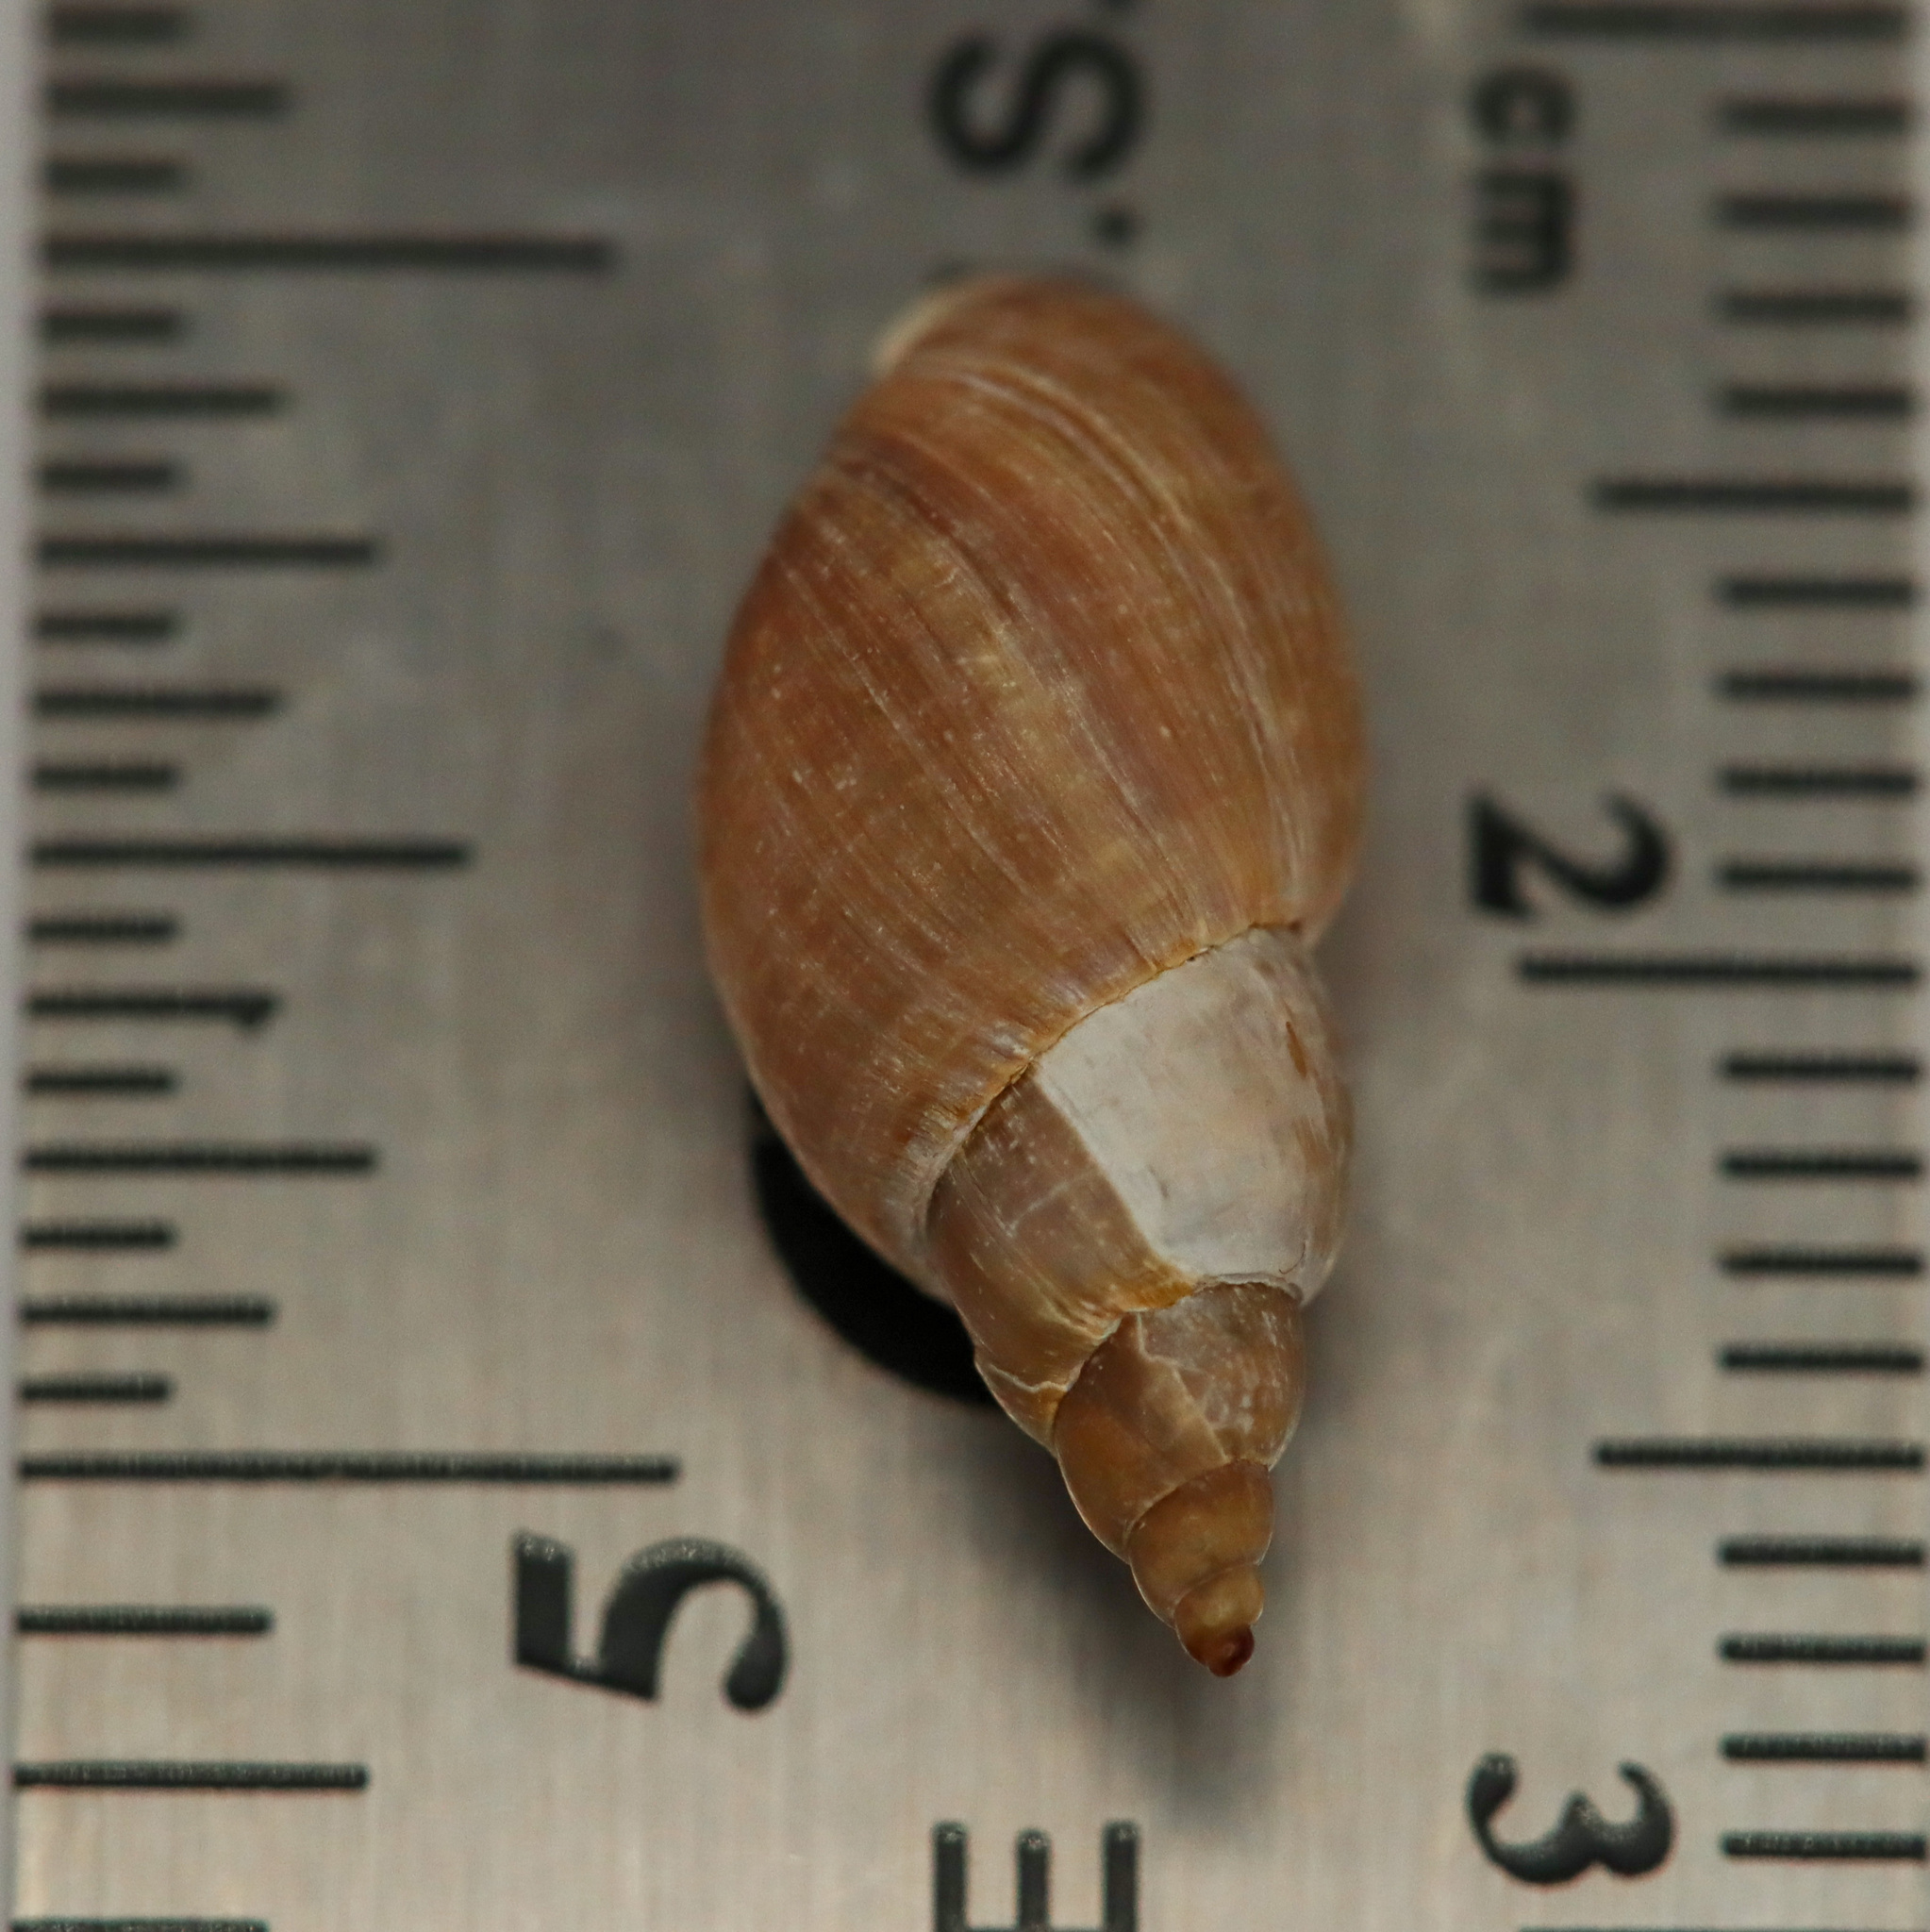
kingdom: Animalia
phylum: Mollusca
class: Gastropoda
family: Lymnaeidae
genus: Lymnaea
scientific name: Lymnaea stagnalis
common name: Great pond snail
